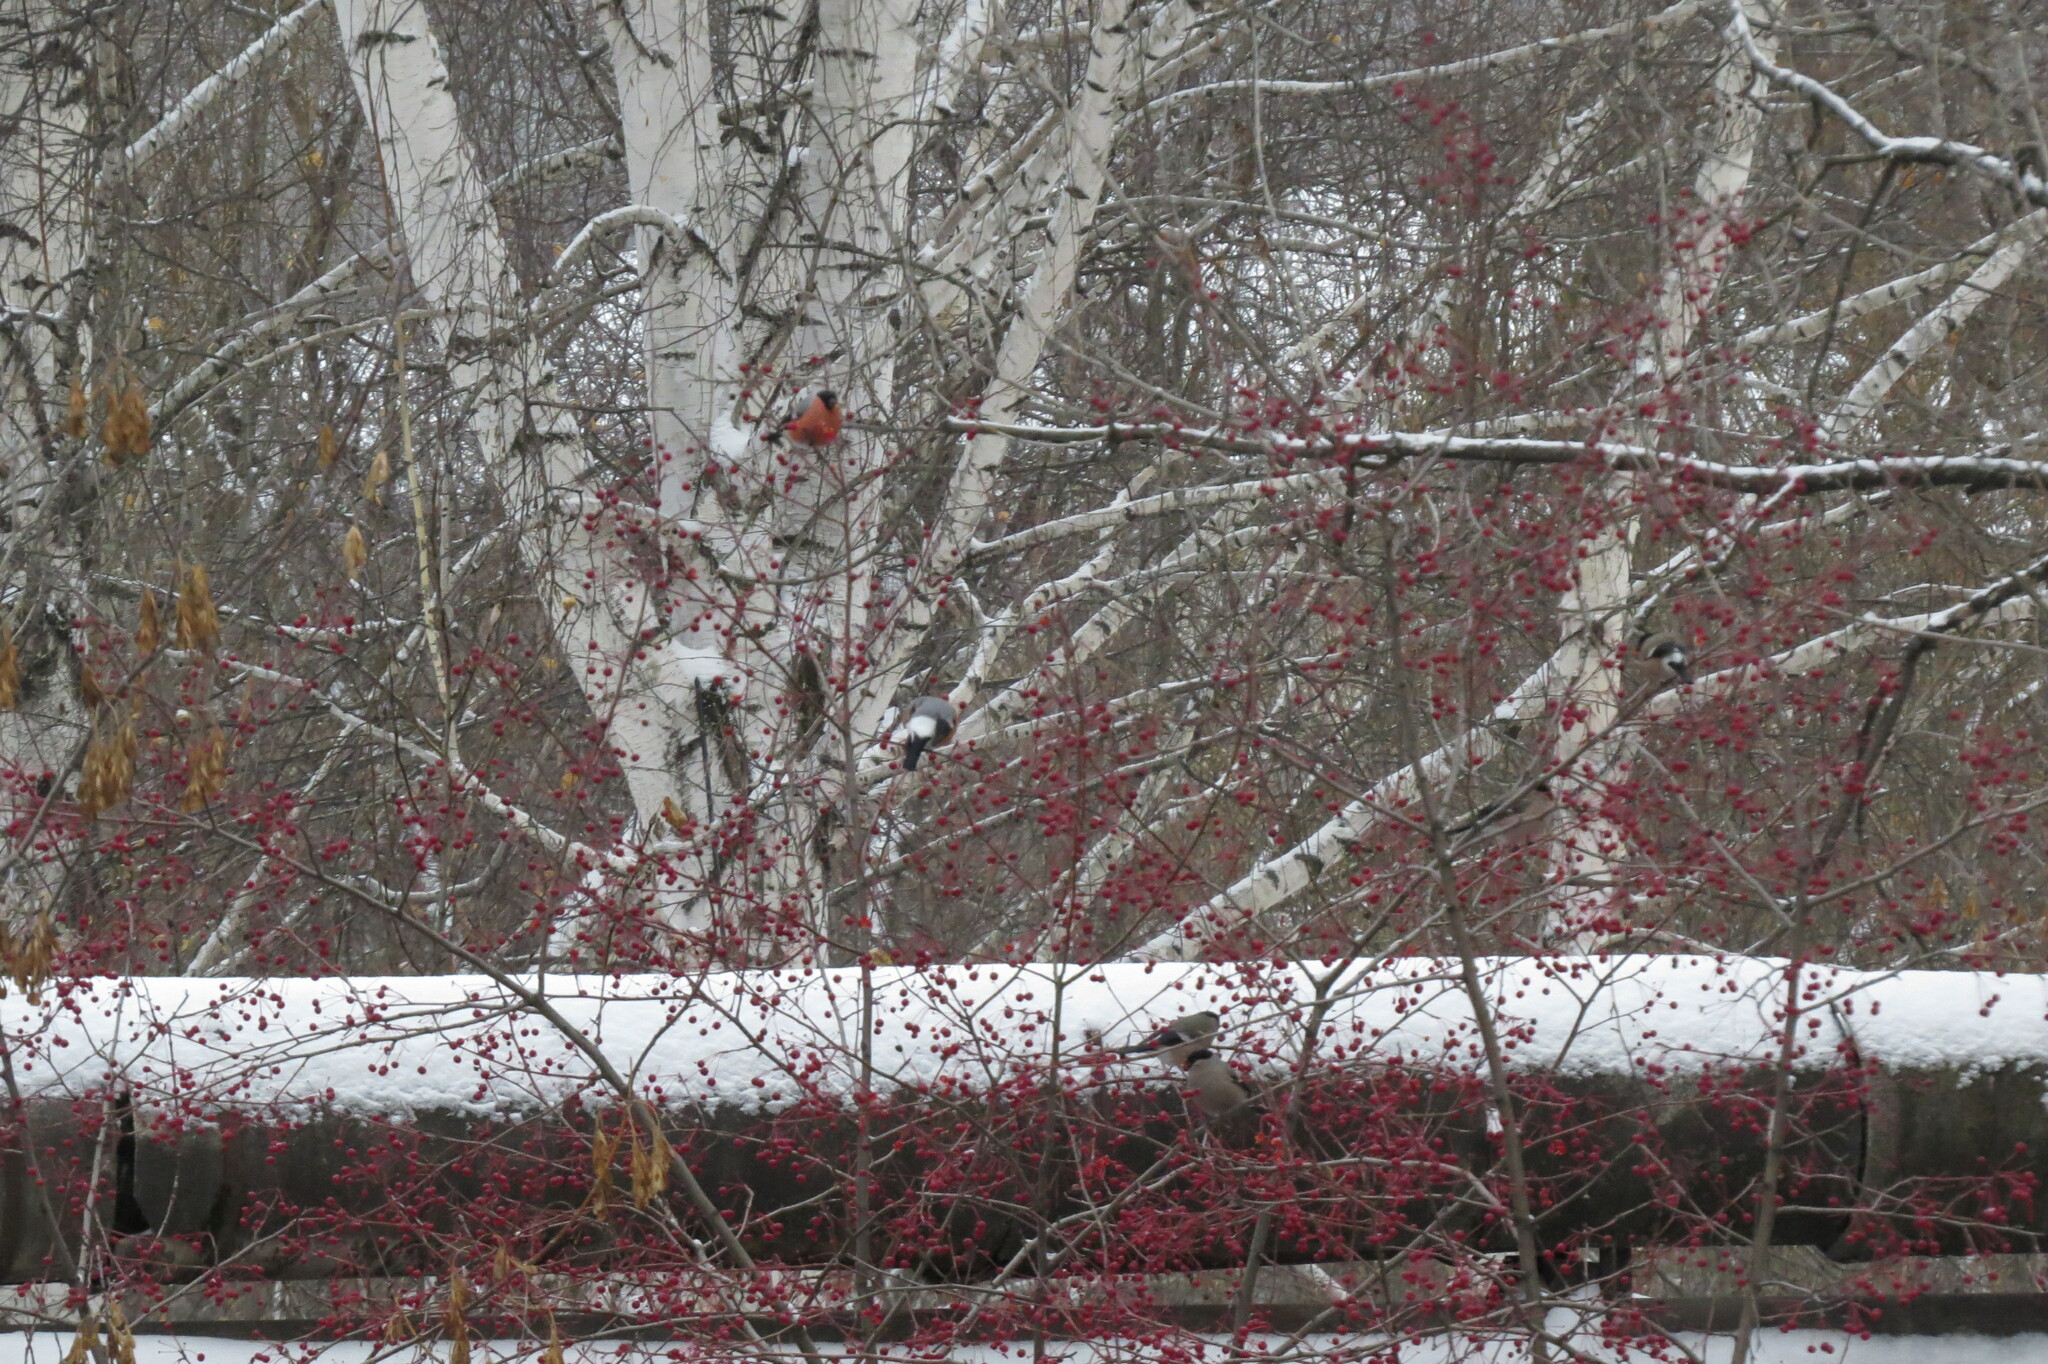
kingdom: Animalia
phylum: Chordata
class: Aves
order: Passeriformes
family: Fringillidae
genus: Pyrrhula
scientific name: Pyrrhula pyrrhula
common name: Eurasian bullfinch
